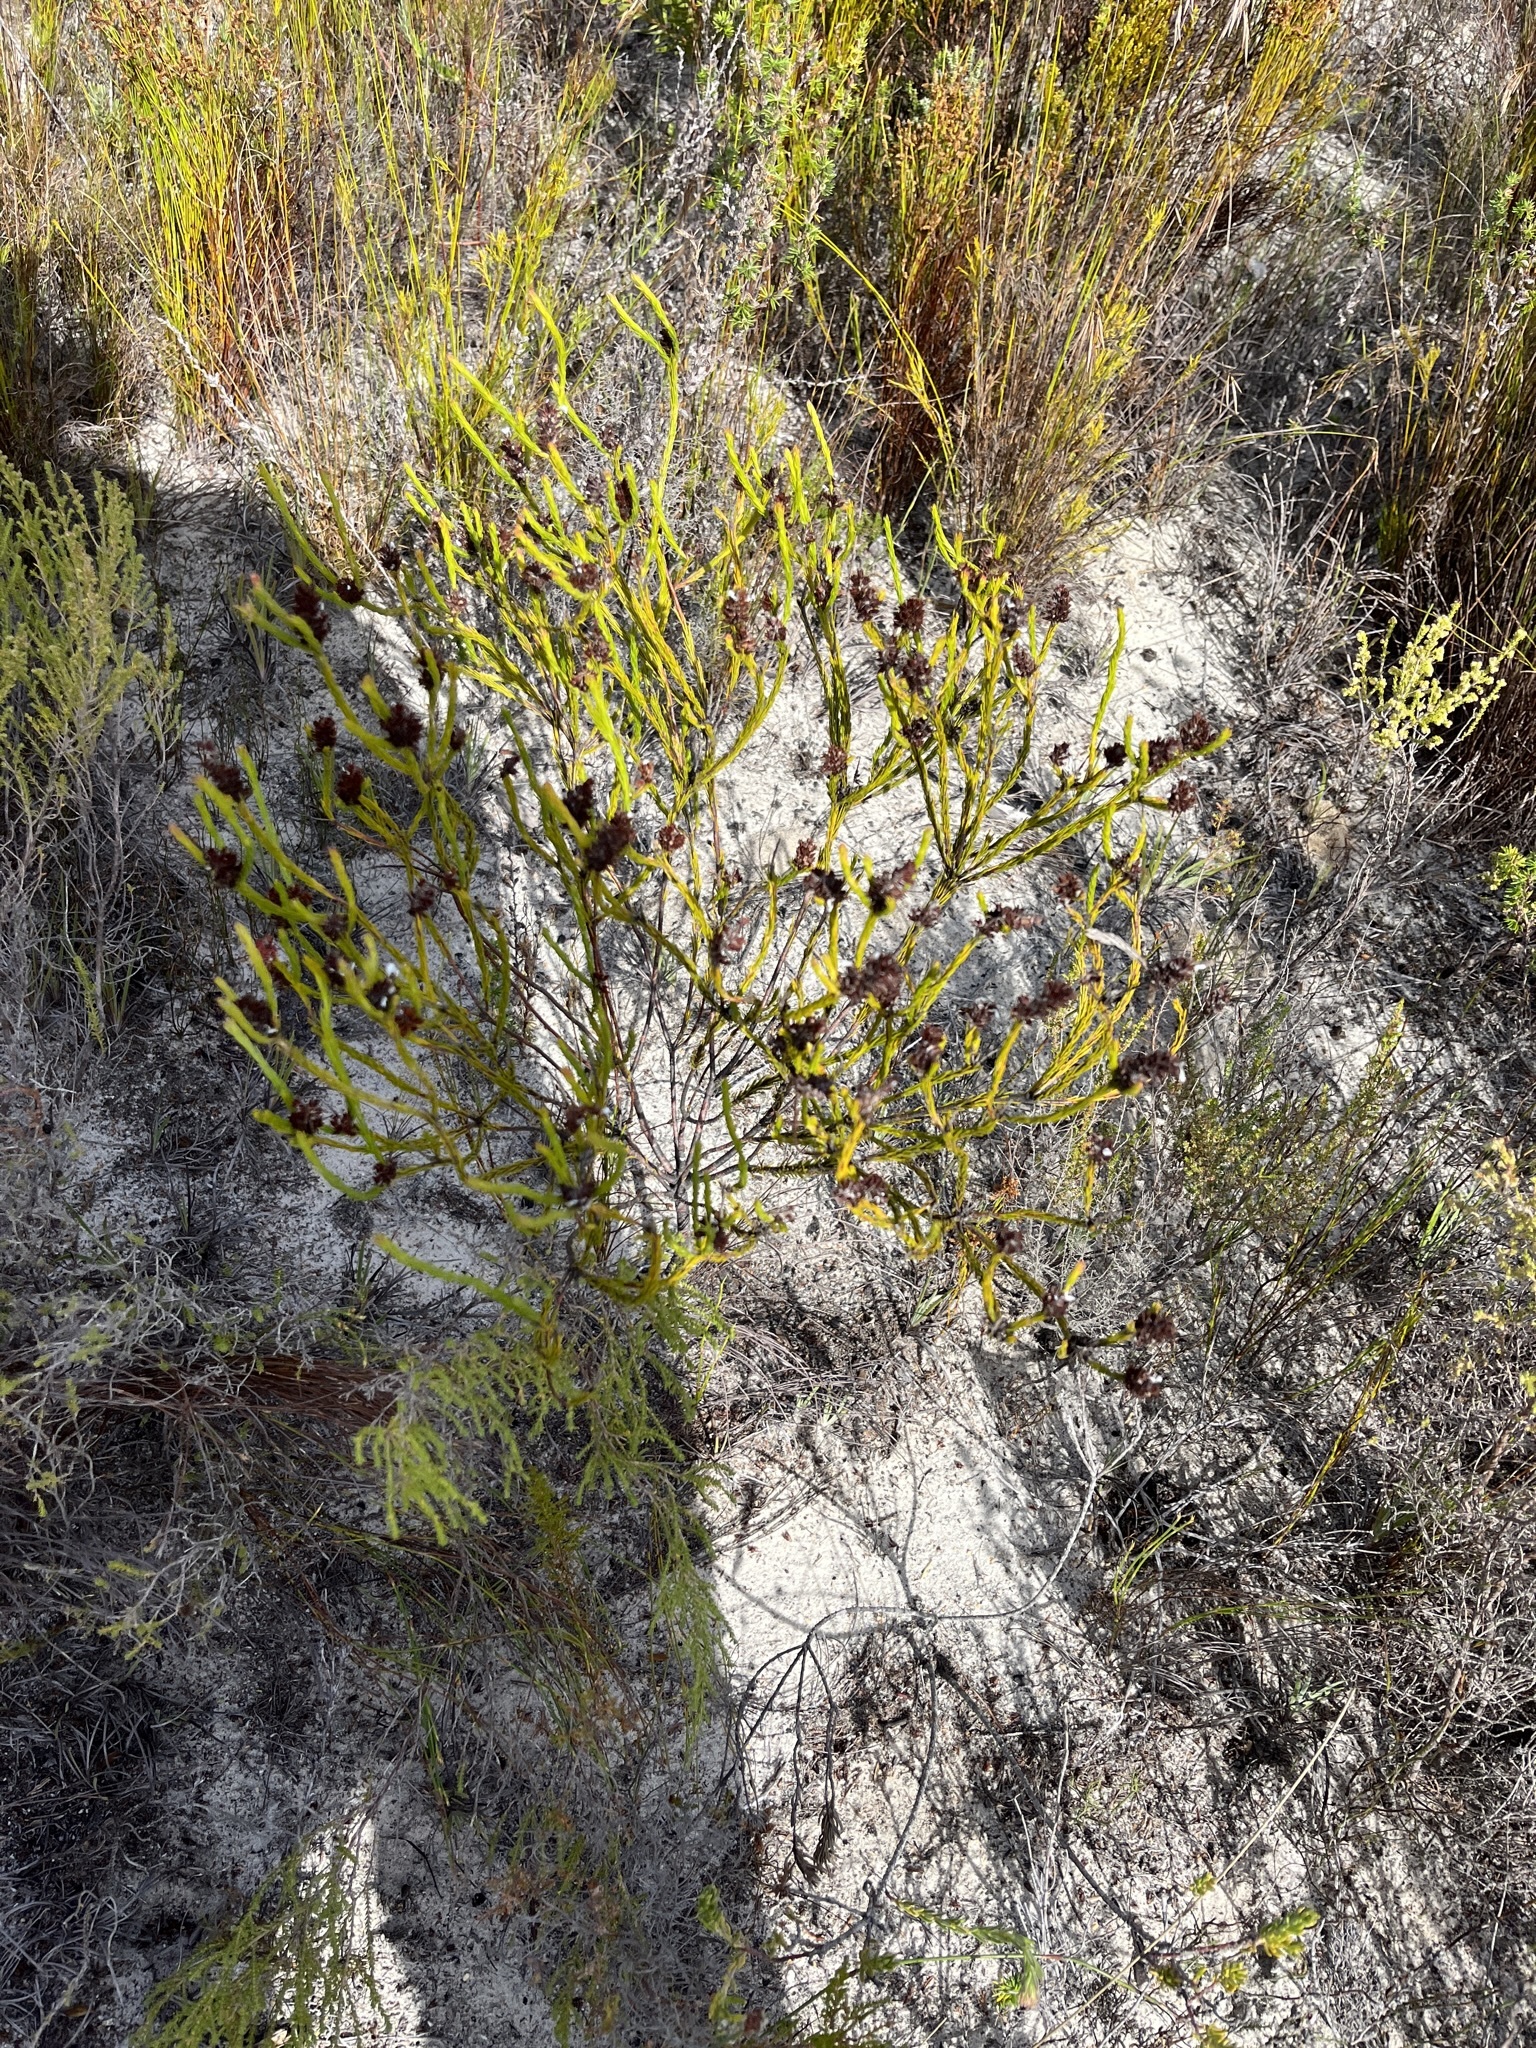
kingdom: Plantae
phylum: Tracheophyta
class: Magnoliopsida
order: Proteales
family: Proteaceae
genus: Spatalla
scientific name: Spatalla squamata
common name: Silky spoon
